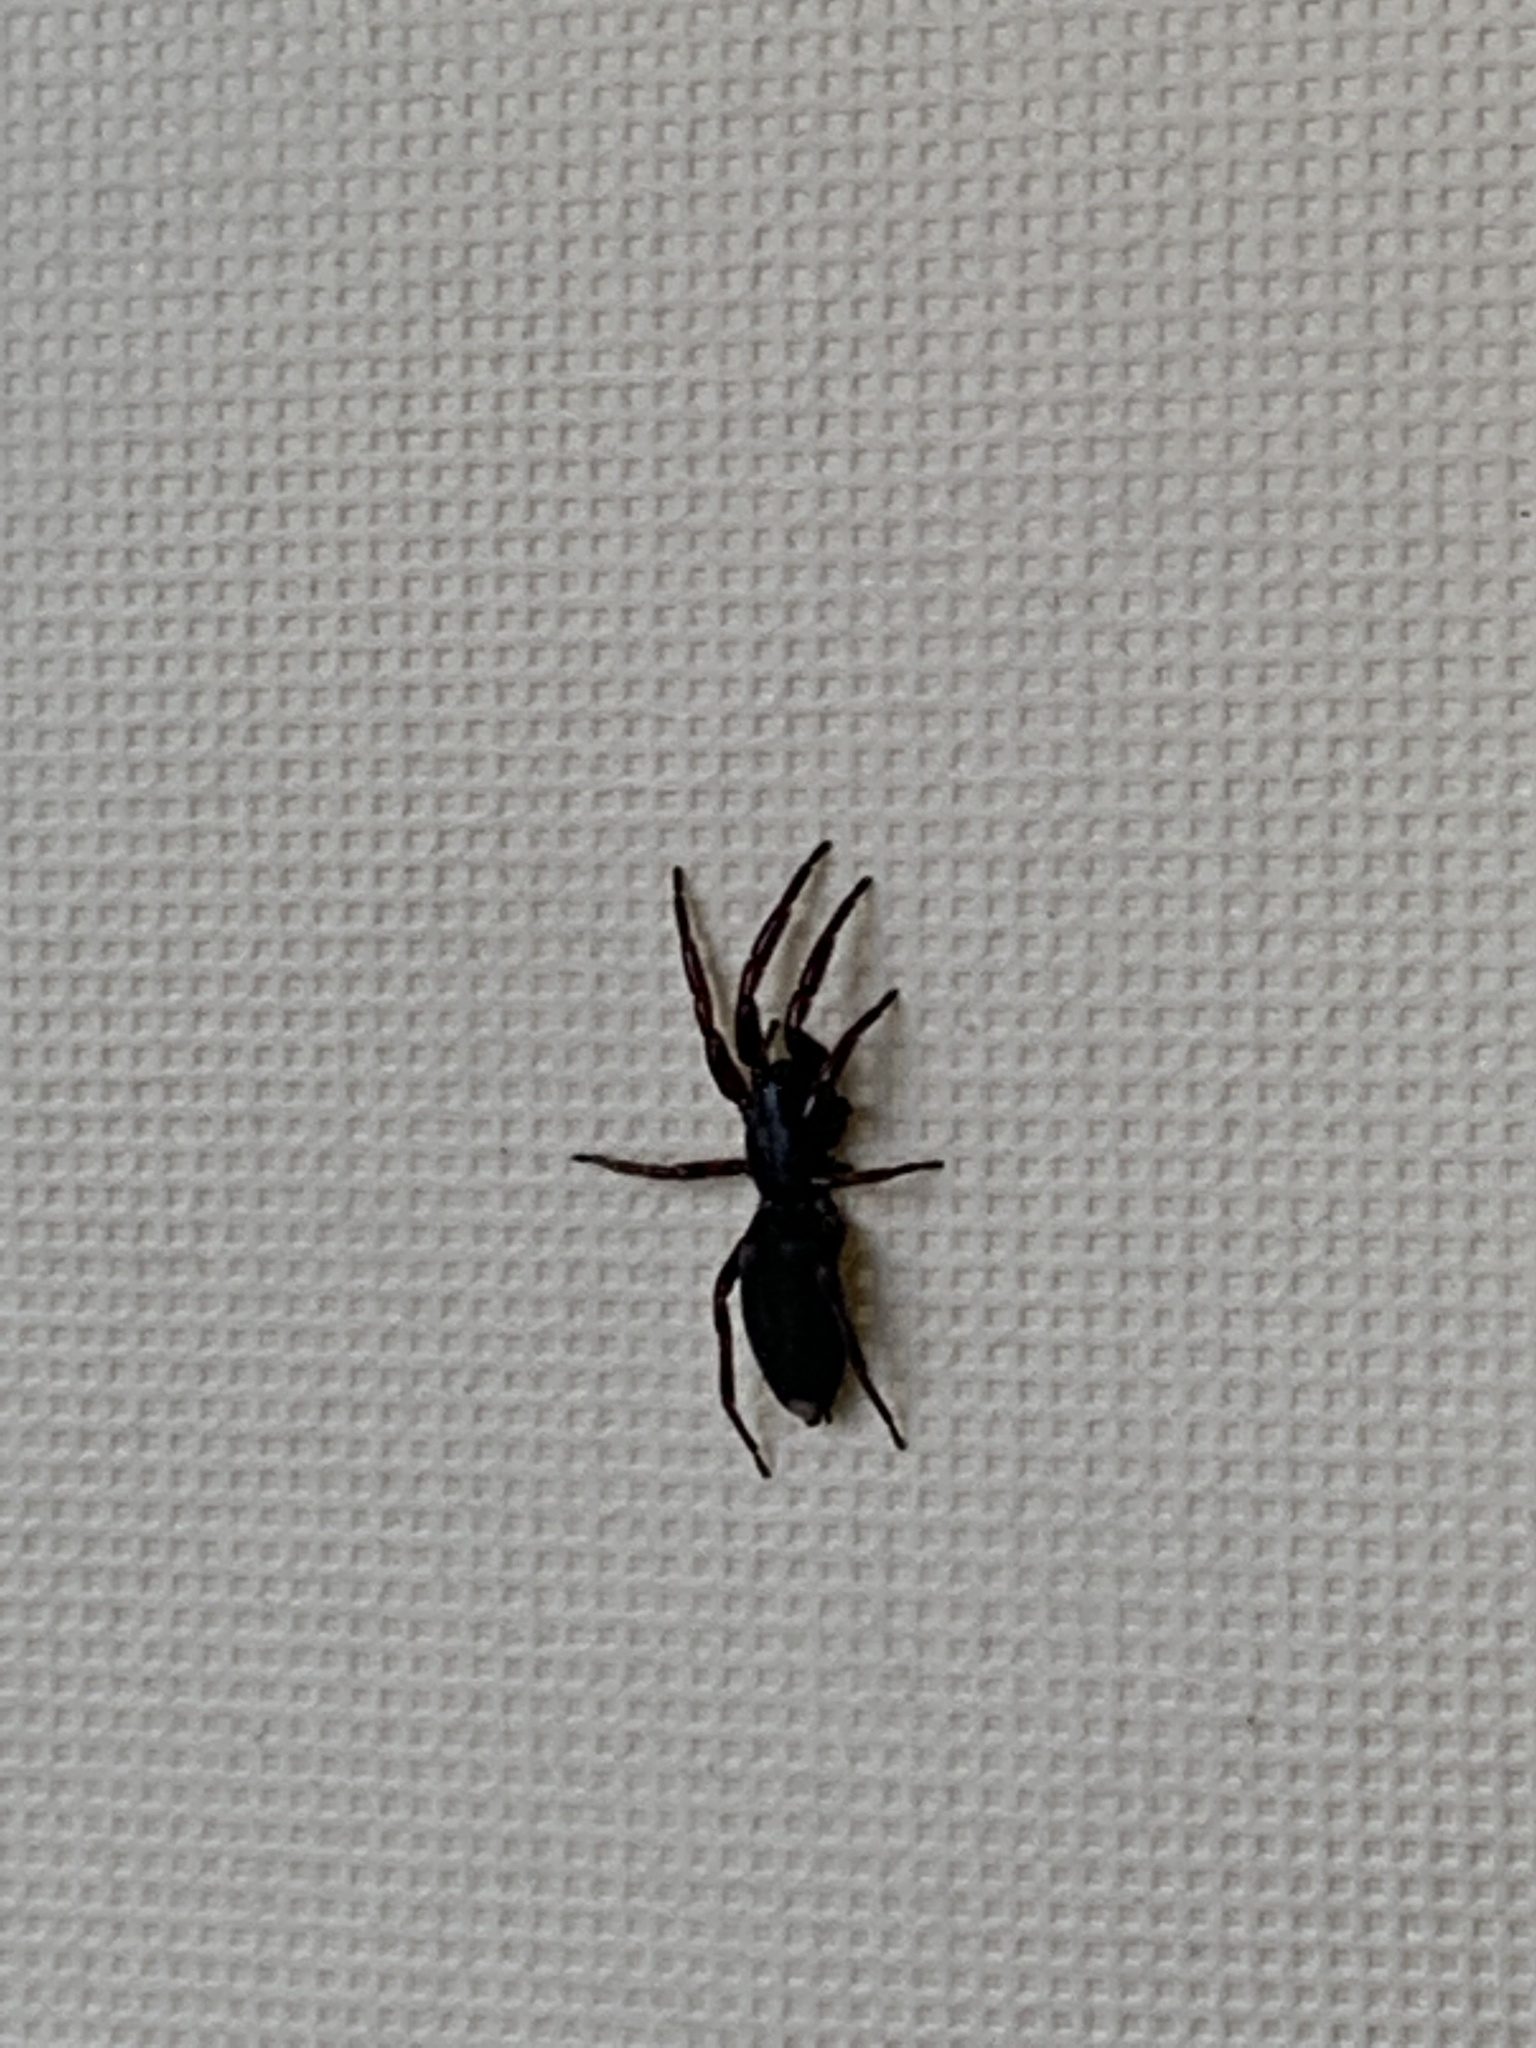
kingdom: Animalia
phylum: Arthropoda
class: Arachnida
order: Araneae
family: Lamponidae
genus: Lampona
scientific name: Lampona murina
